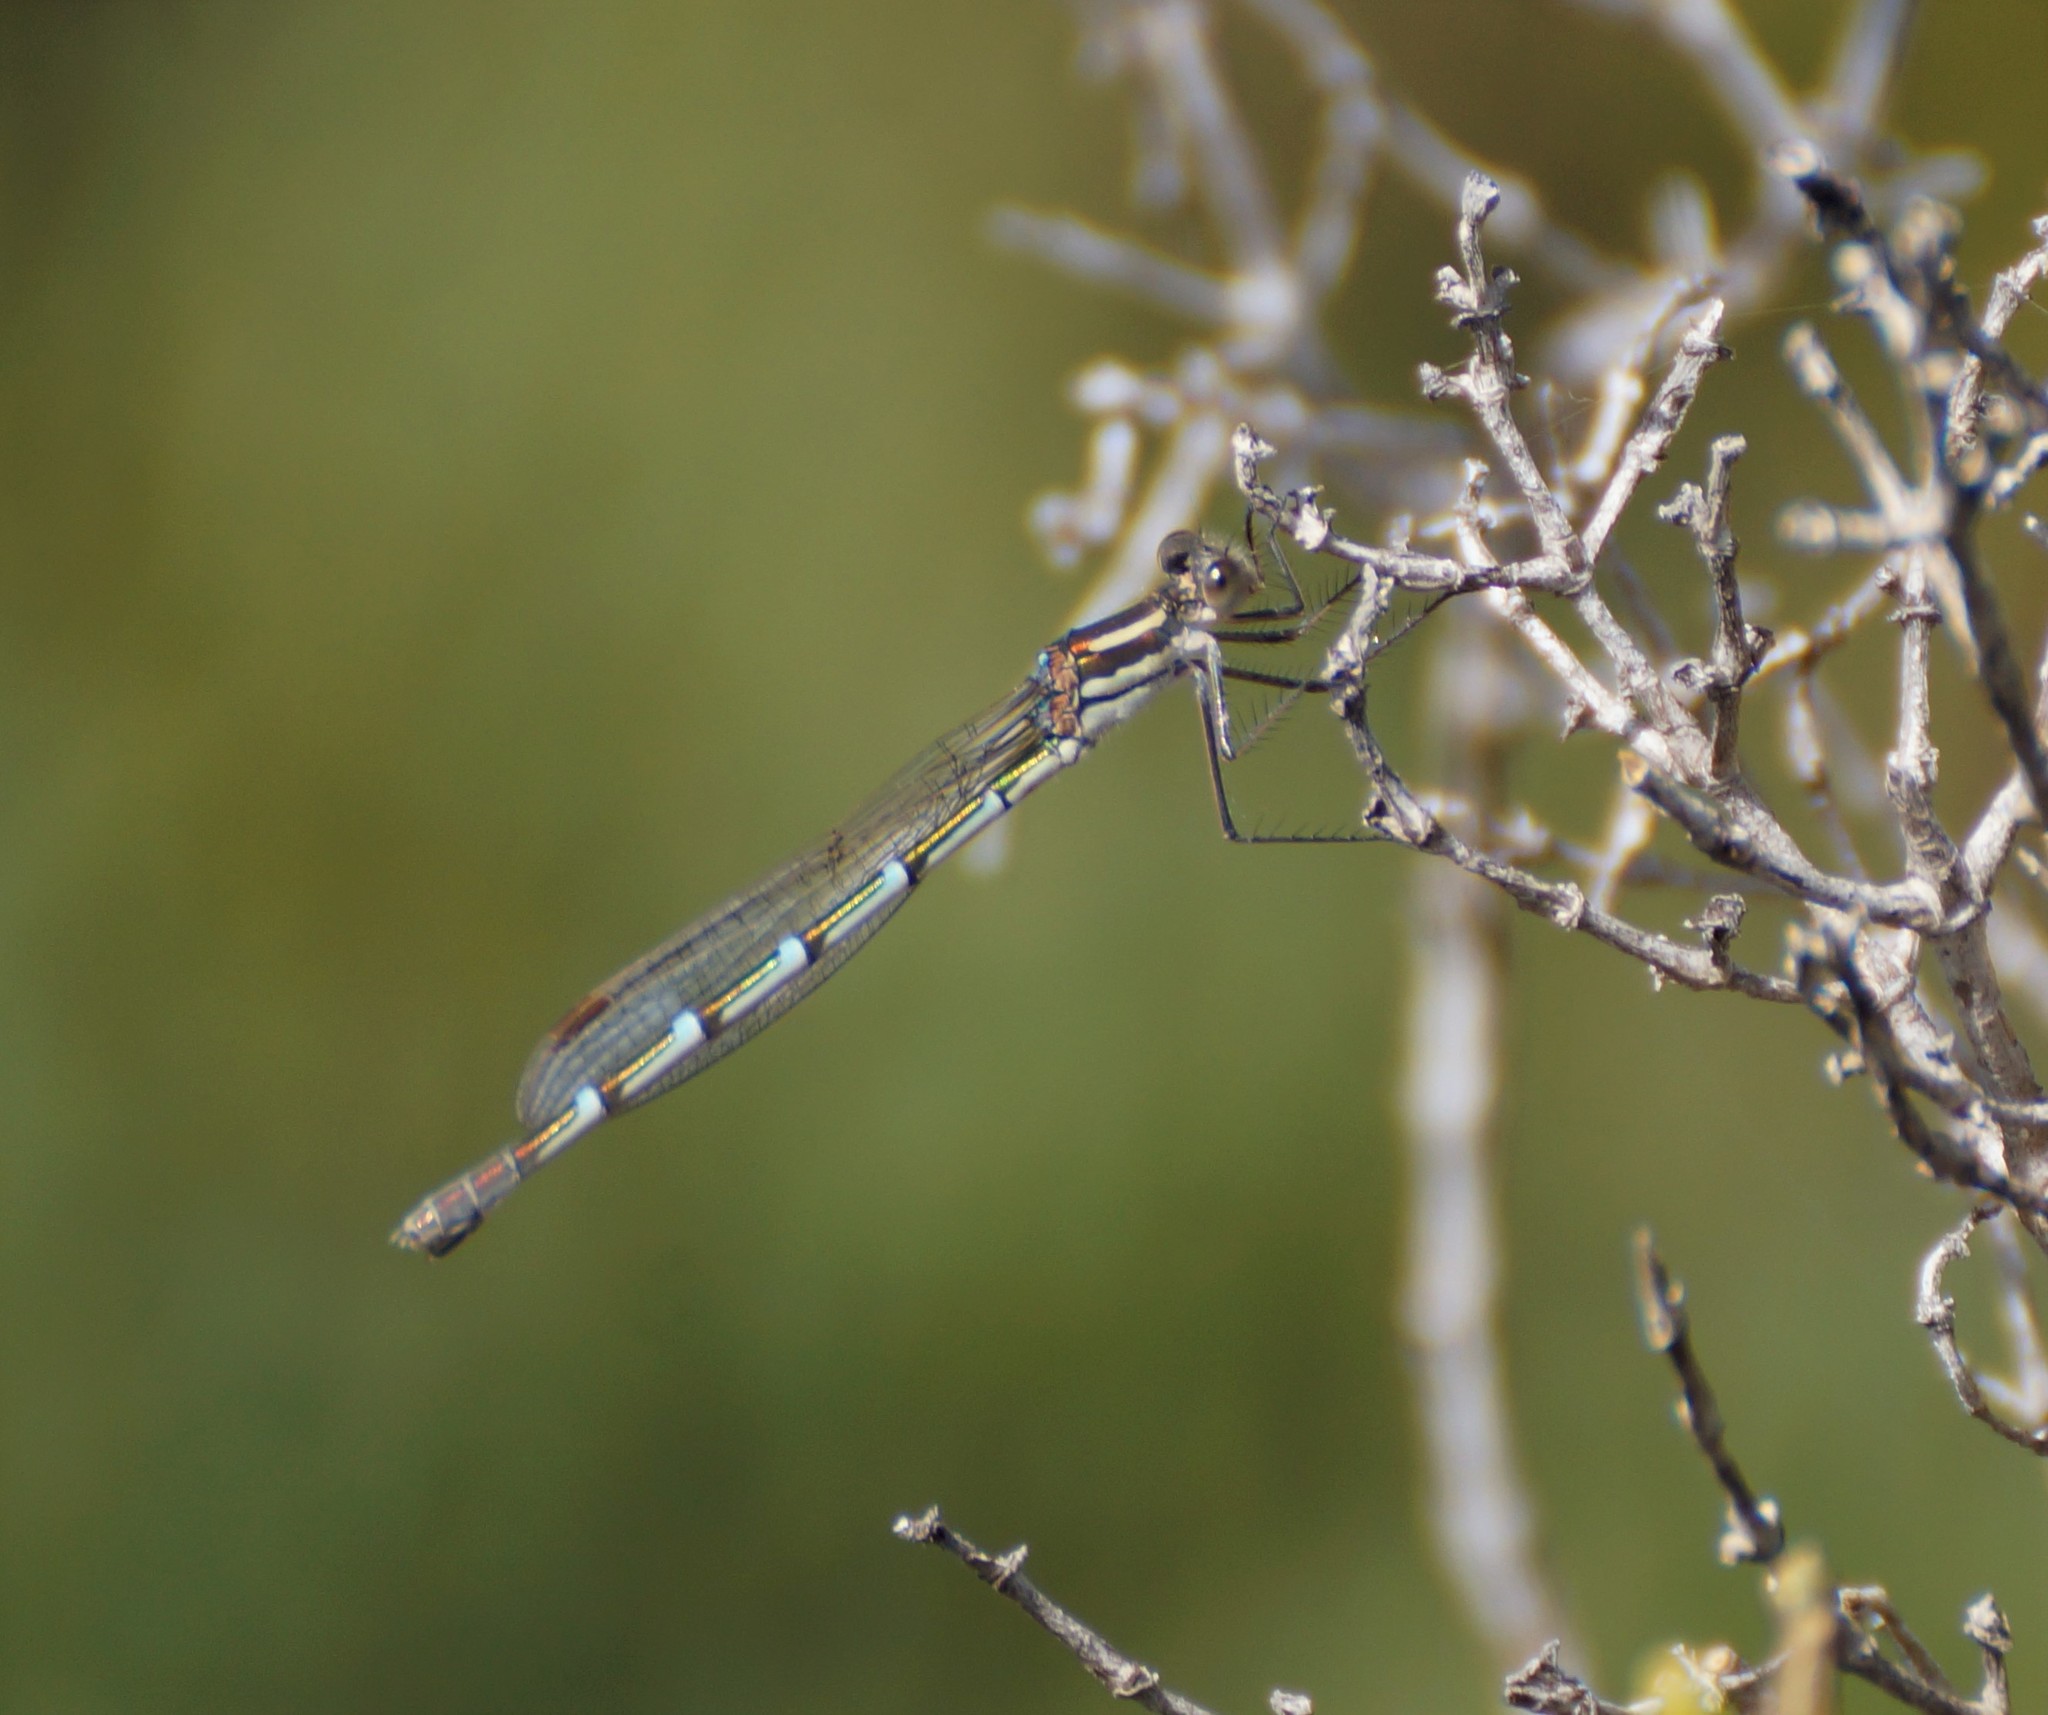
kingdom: Animalia
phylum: Arthropoda
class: Insecta
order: Odonata
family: Lestidae
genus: Austrolestes
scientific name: Austrolestes annulosus
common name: Blue ringtail
